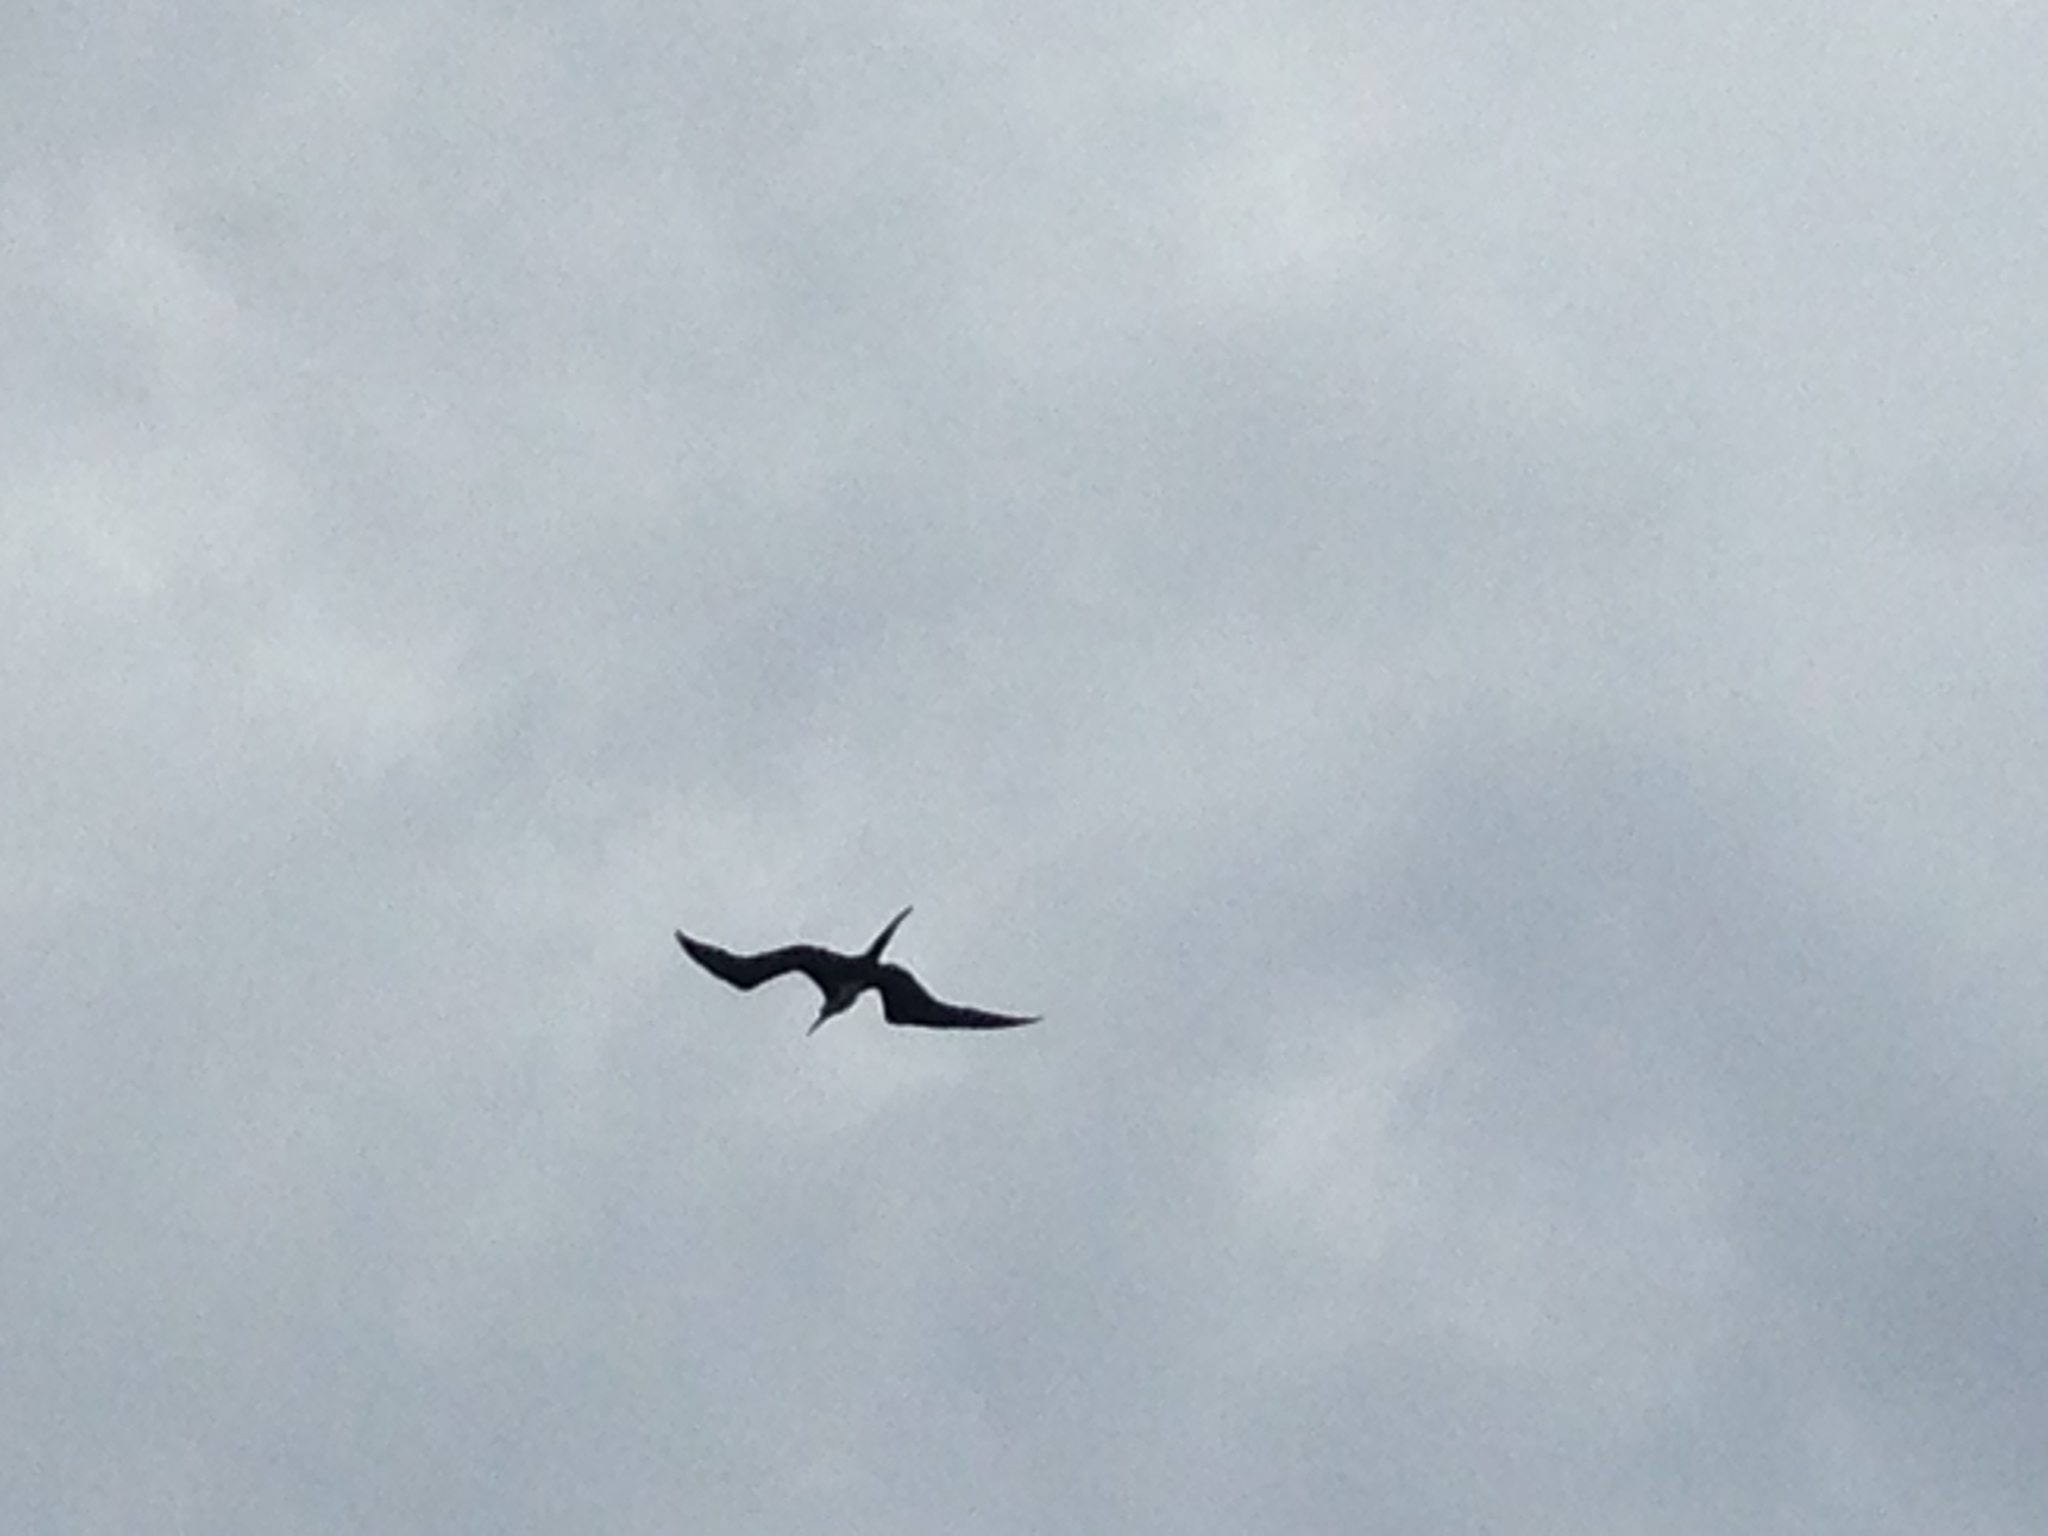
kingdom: Animalia
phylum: Chordata
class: Aves
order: Suliformes
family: Fregatidae
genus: Fregata
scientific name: Fregata magnificens
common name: Magnificent frigatebird
